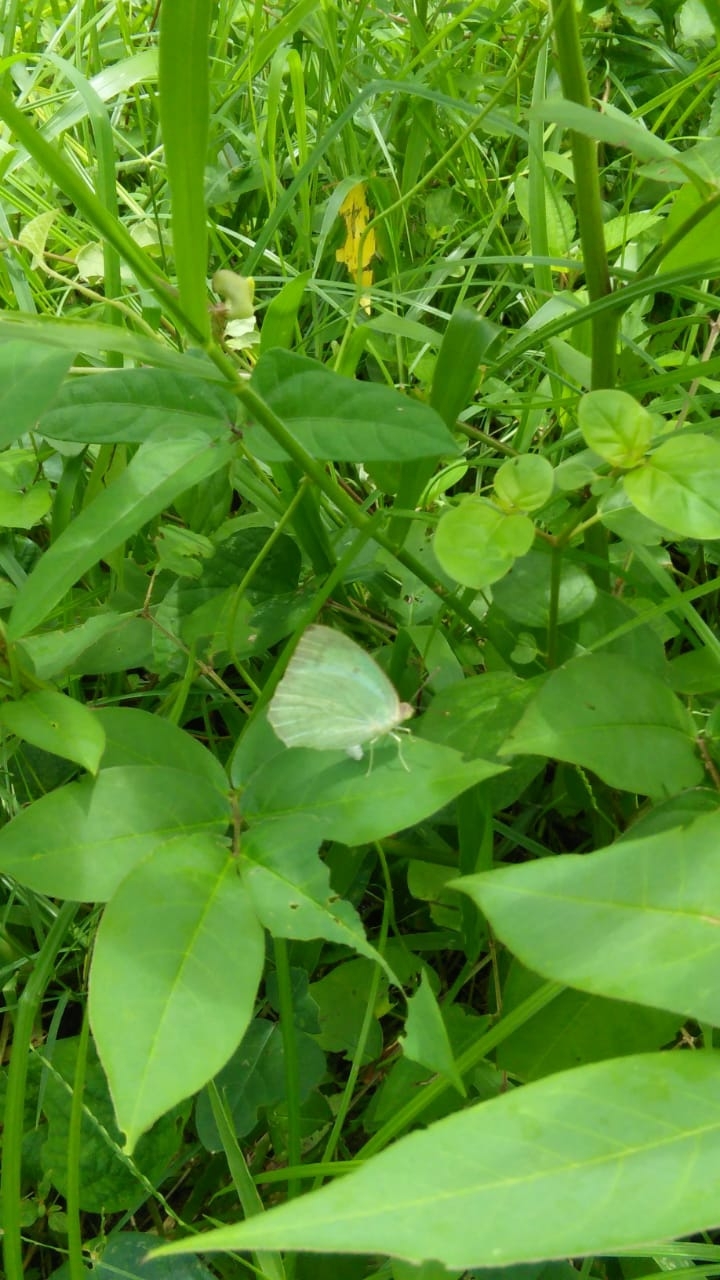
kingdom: Animalia
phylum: Arthropoda
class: Insecta
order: Lepidoptera
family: Pieridae
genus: Catopsilia
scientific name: Catopsilia pyranthe
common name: Mottled emigrant
